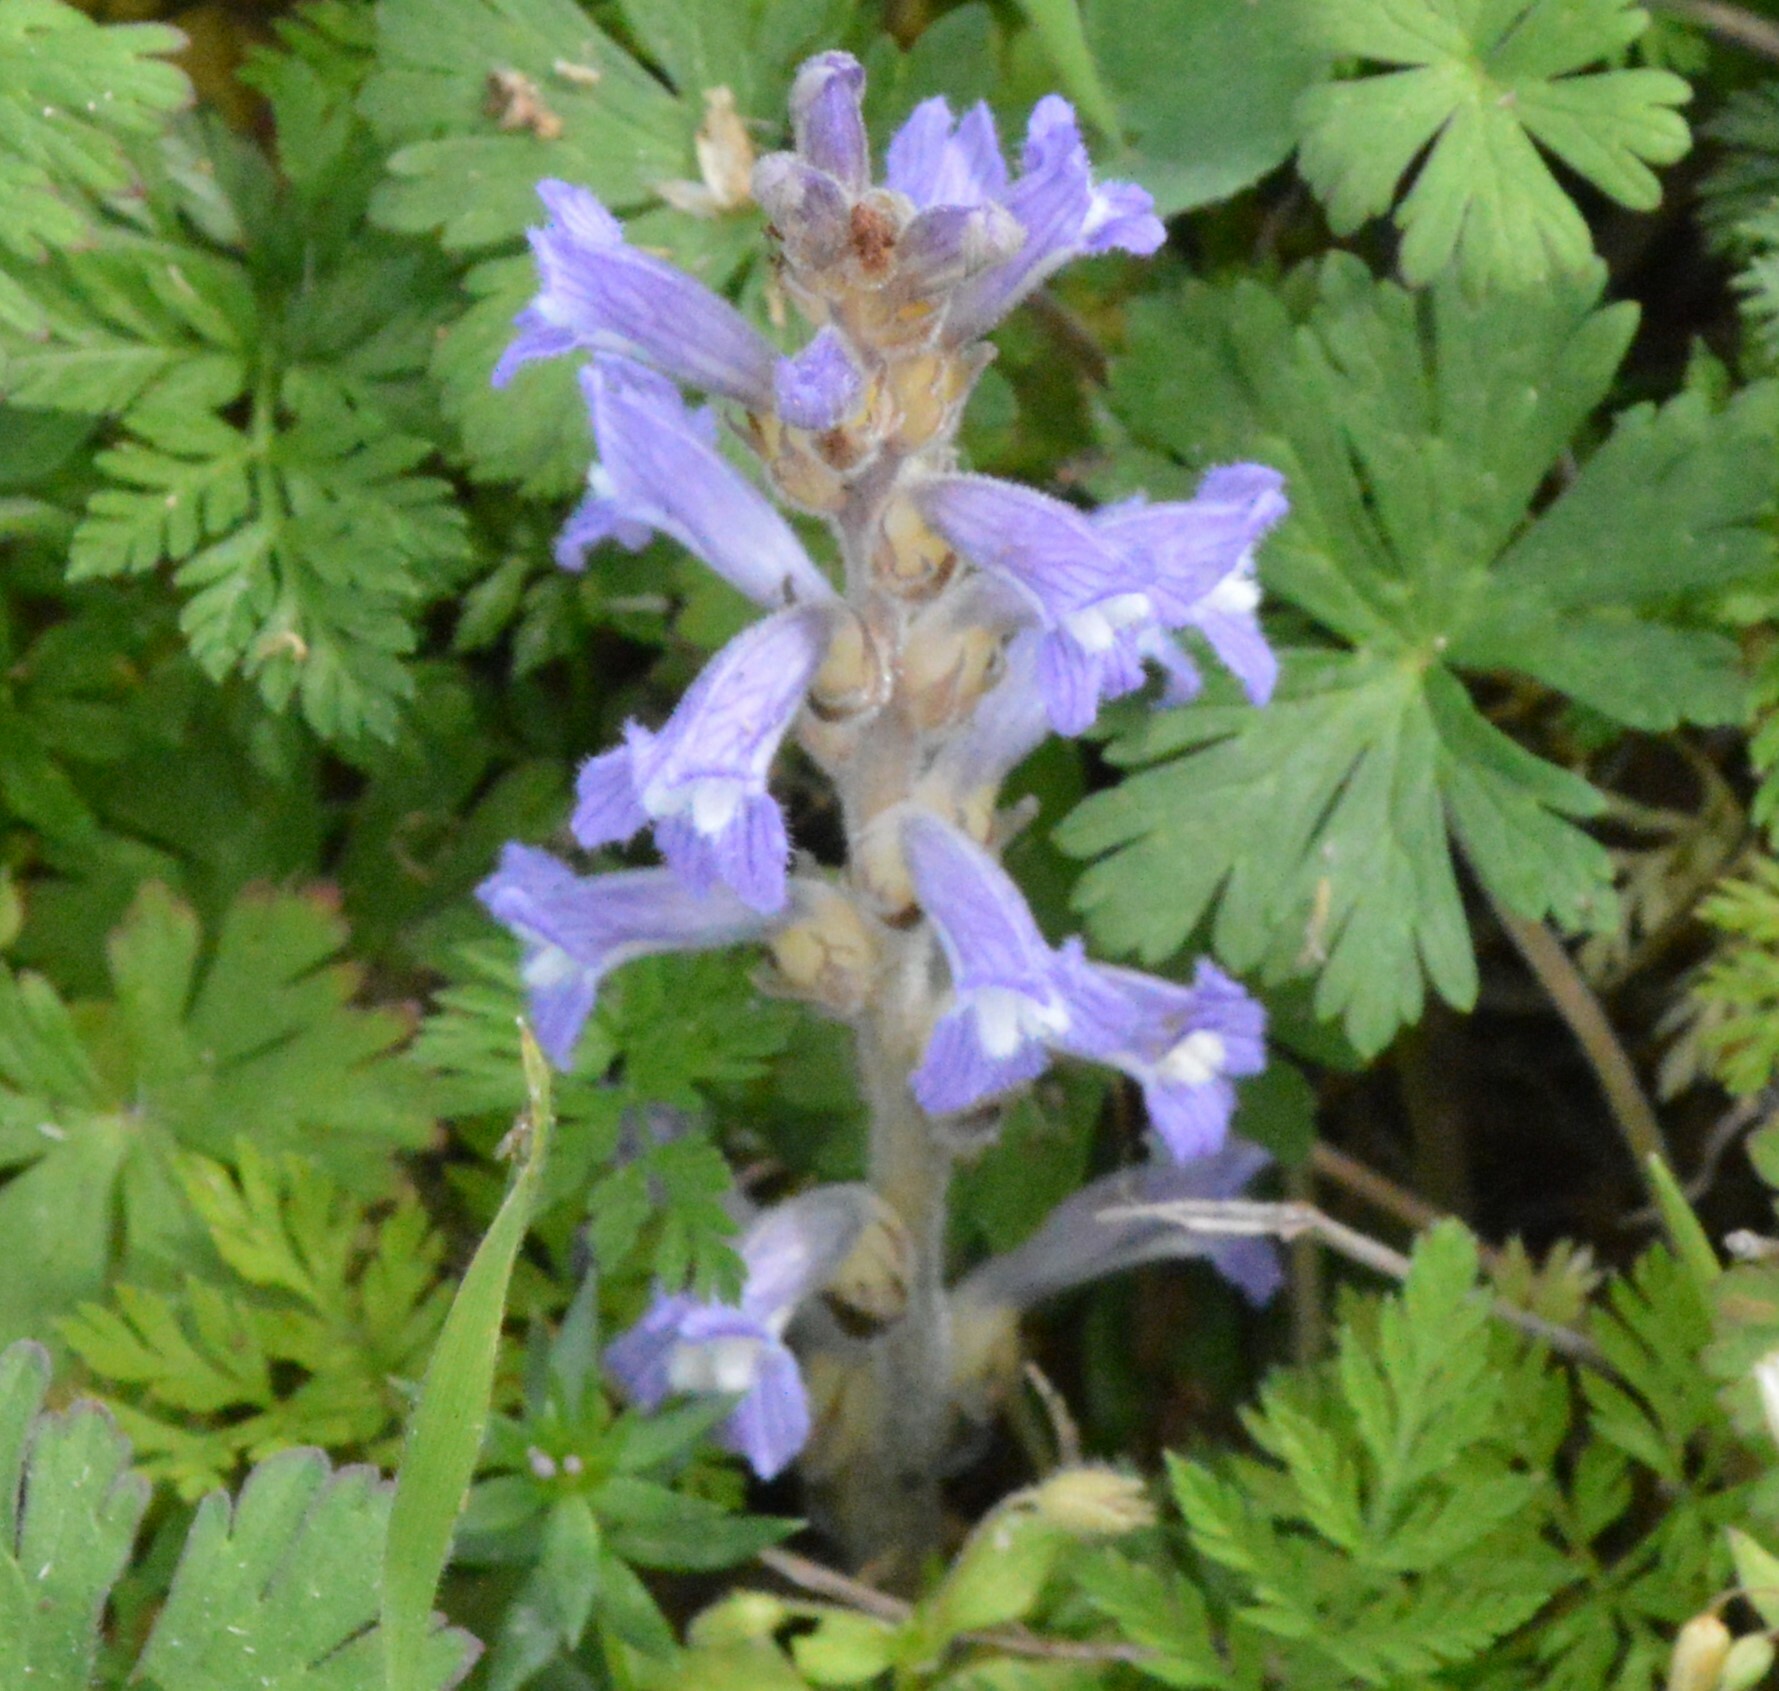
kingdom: Plantae
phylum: Tracheophyta
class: Magnoliopsida
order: Lamiales
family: Orobanchaceae
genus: Phelipanche
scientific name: Phelipanche mutelii
